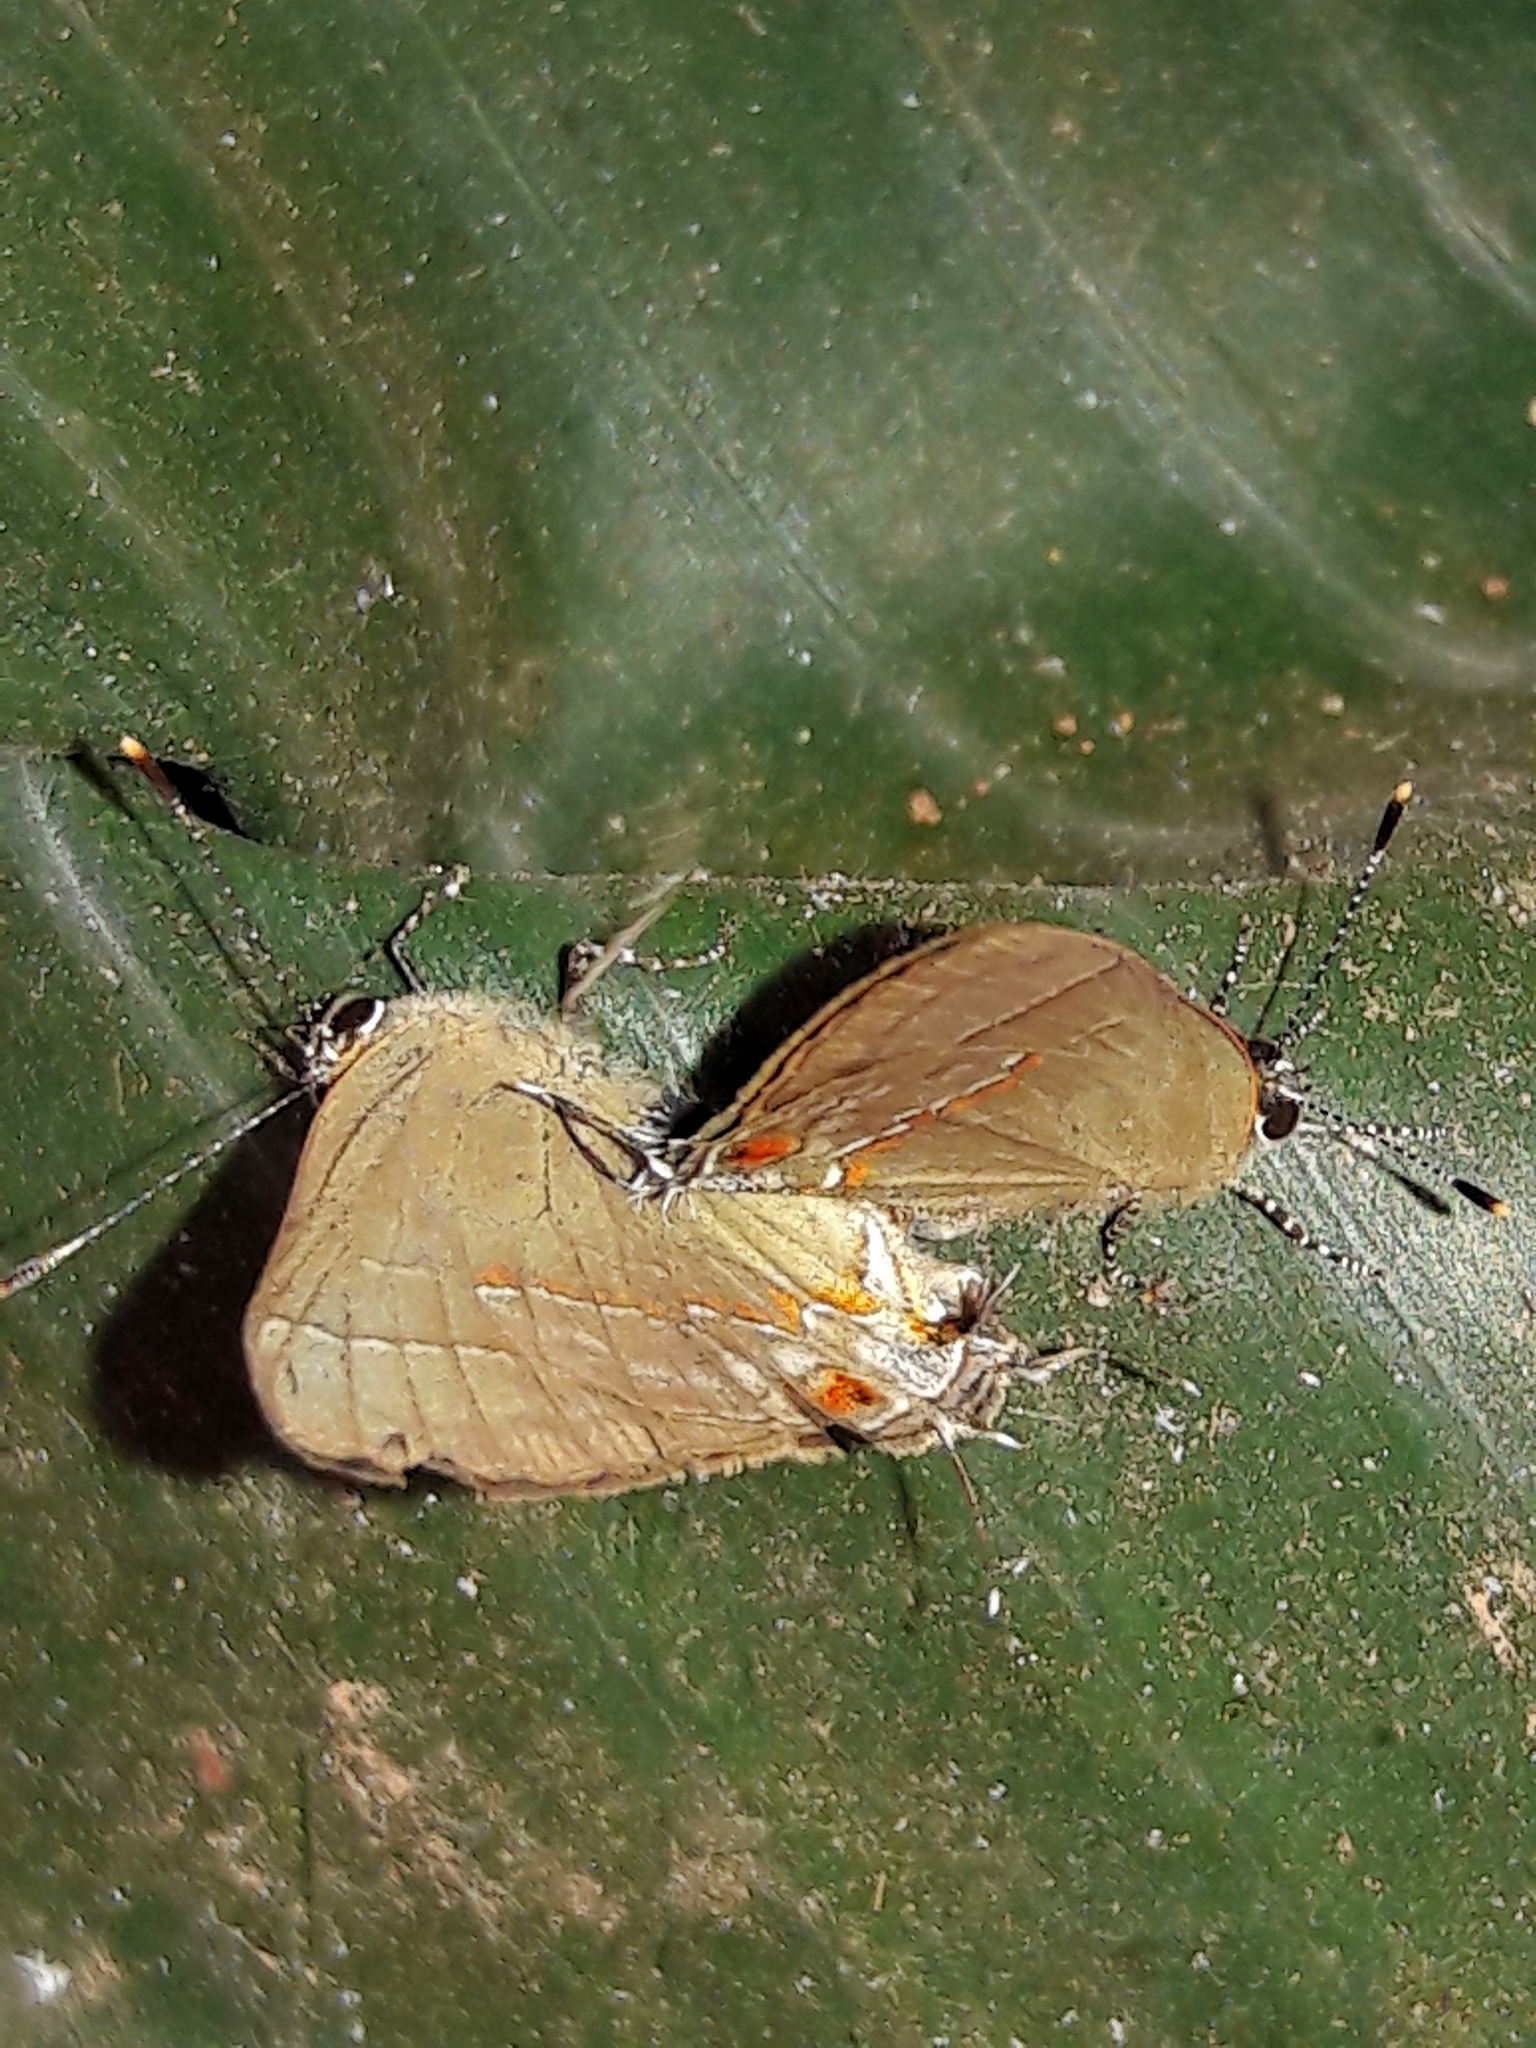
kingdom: Animalia
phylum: Arthropoda
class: Insecta
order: Lepidoptera
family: Lycaenidae
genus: Thecla
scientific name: Thecla syllis
